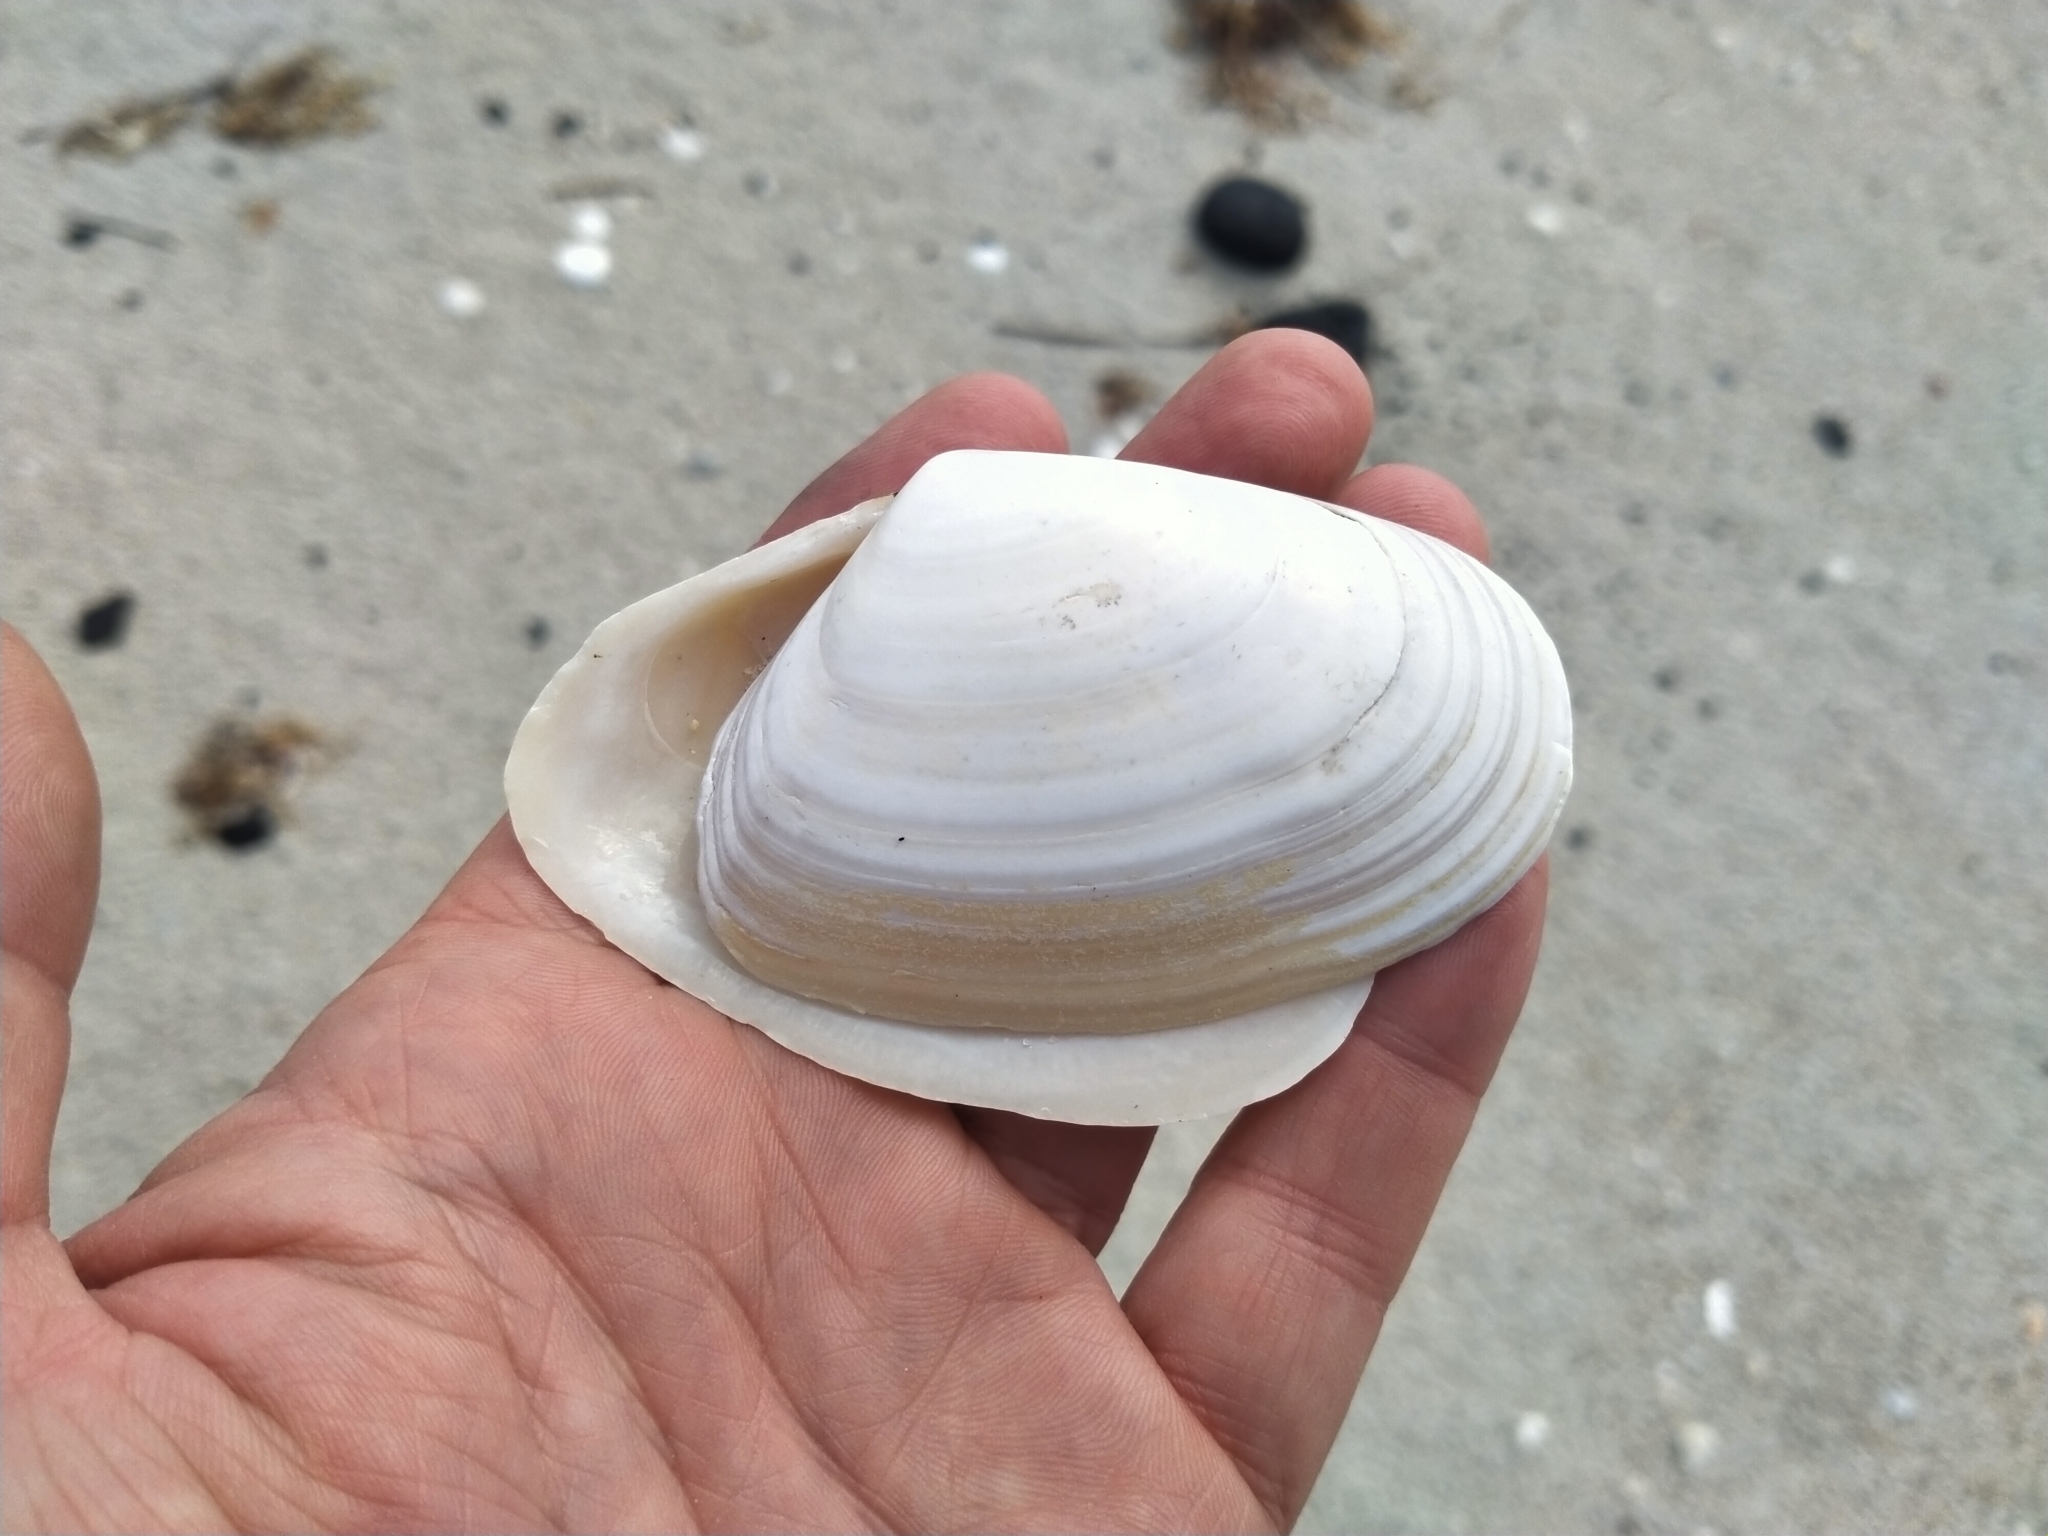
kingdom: Animalia
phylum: Mollusca
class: Bivalvia
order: Venerida
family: Mesodesmatidae
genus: Paphies
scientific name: Paphies donacina
